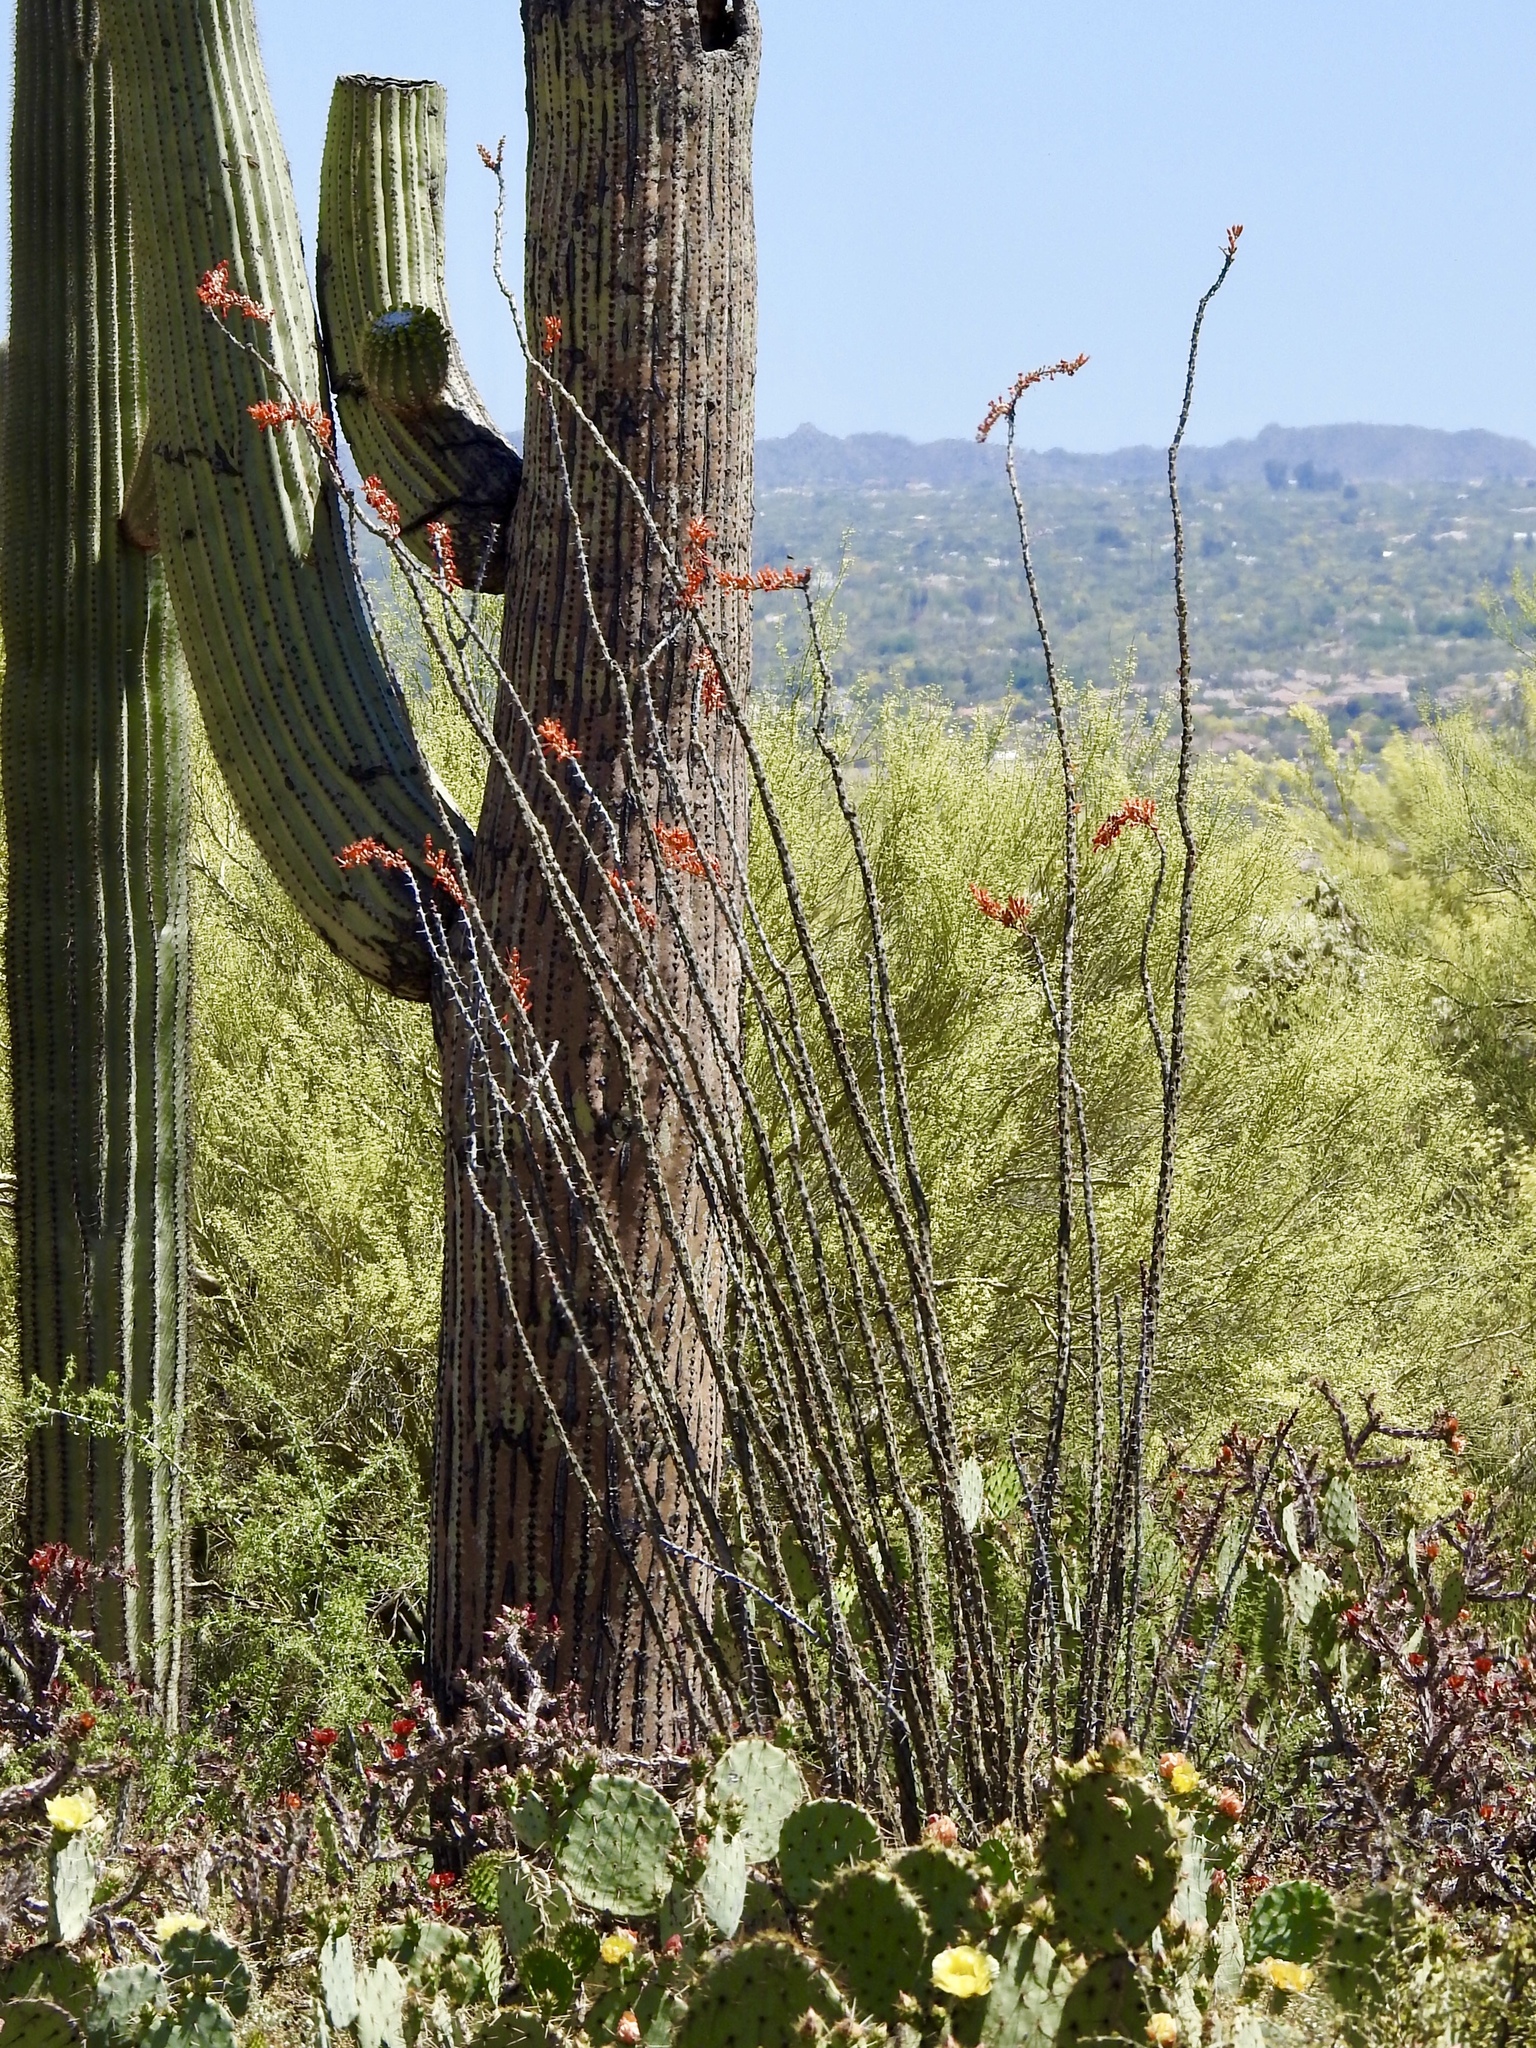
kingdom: Plantae
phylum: Tracheophyta
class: Magnoliopsida
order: Ericales
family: Fouquieriaceae
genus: Fouquieria
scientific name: Fouquieria splendens
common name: Vine-cactus
